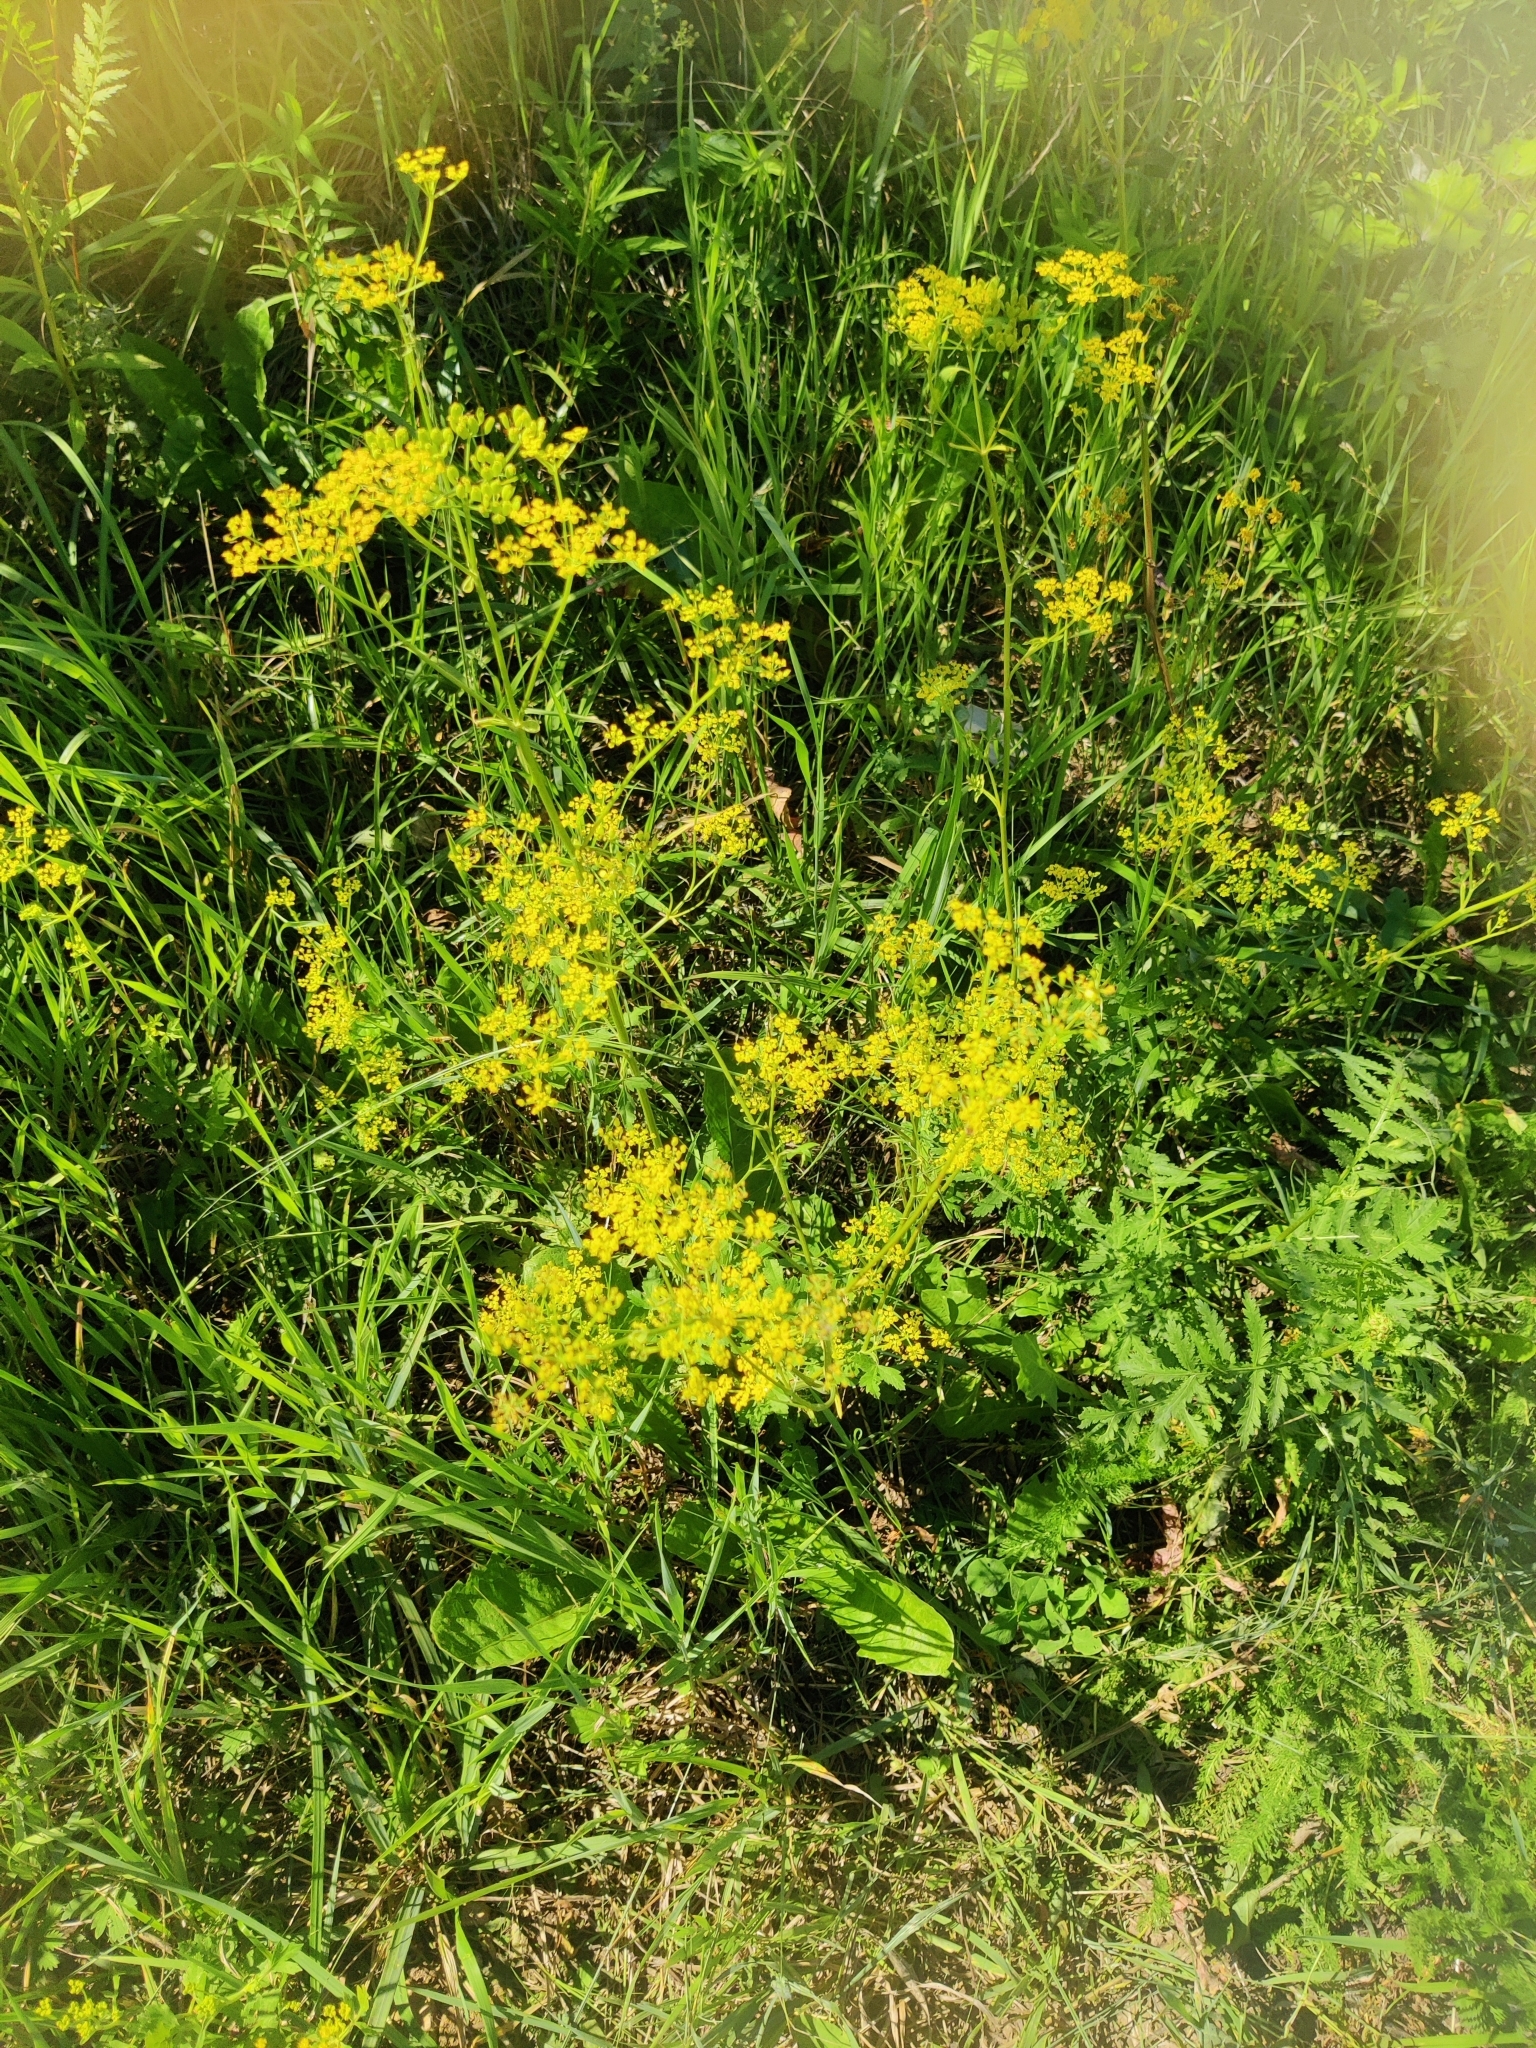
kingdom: Plantae
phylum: Tracheophyta
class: Magnoliopsida
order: Apiales
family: Apiaceae
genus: Pastinaca
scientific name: Pastinaca sativa
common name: Wild parsnip
